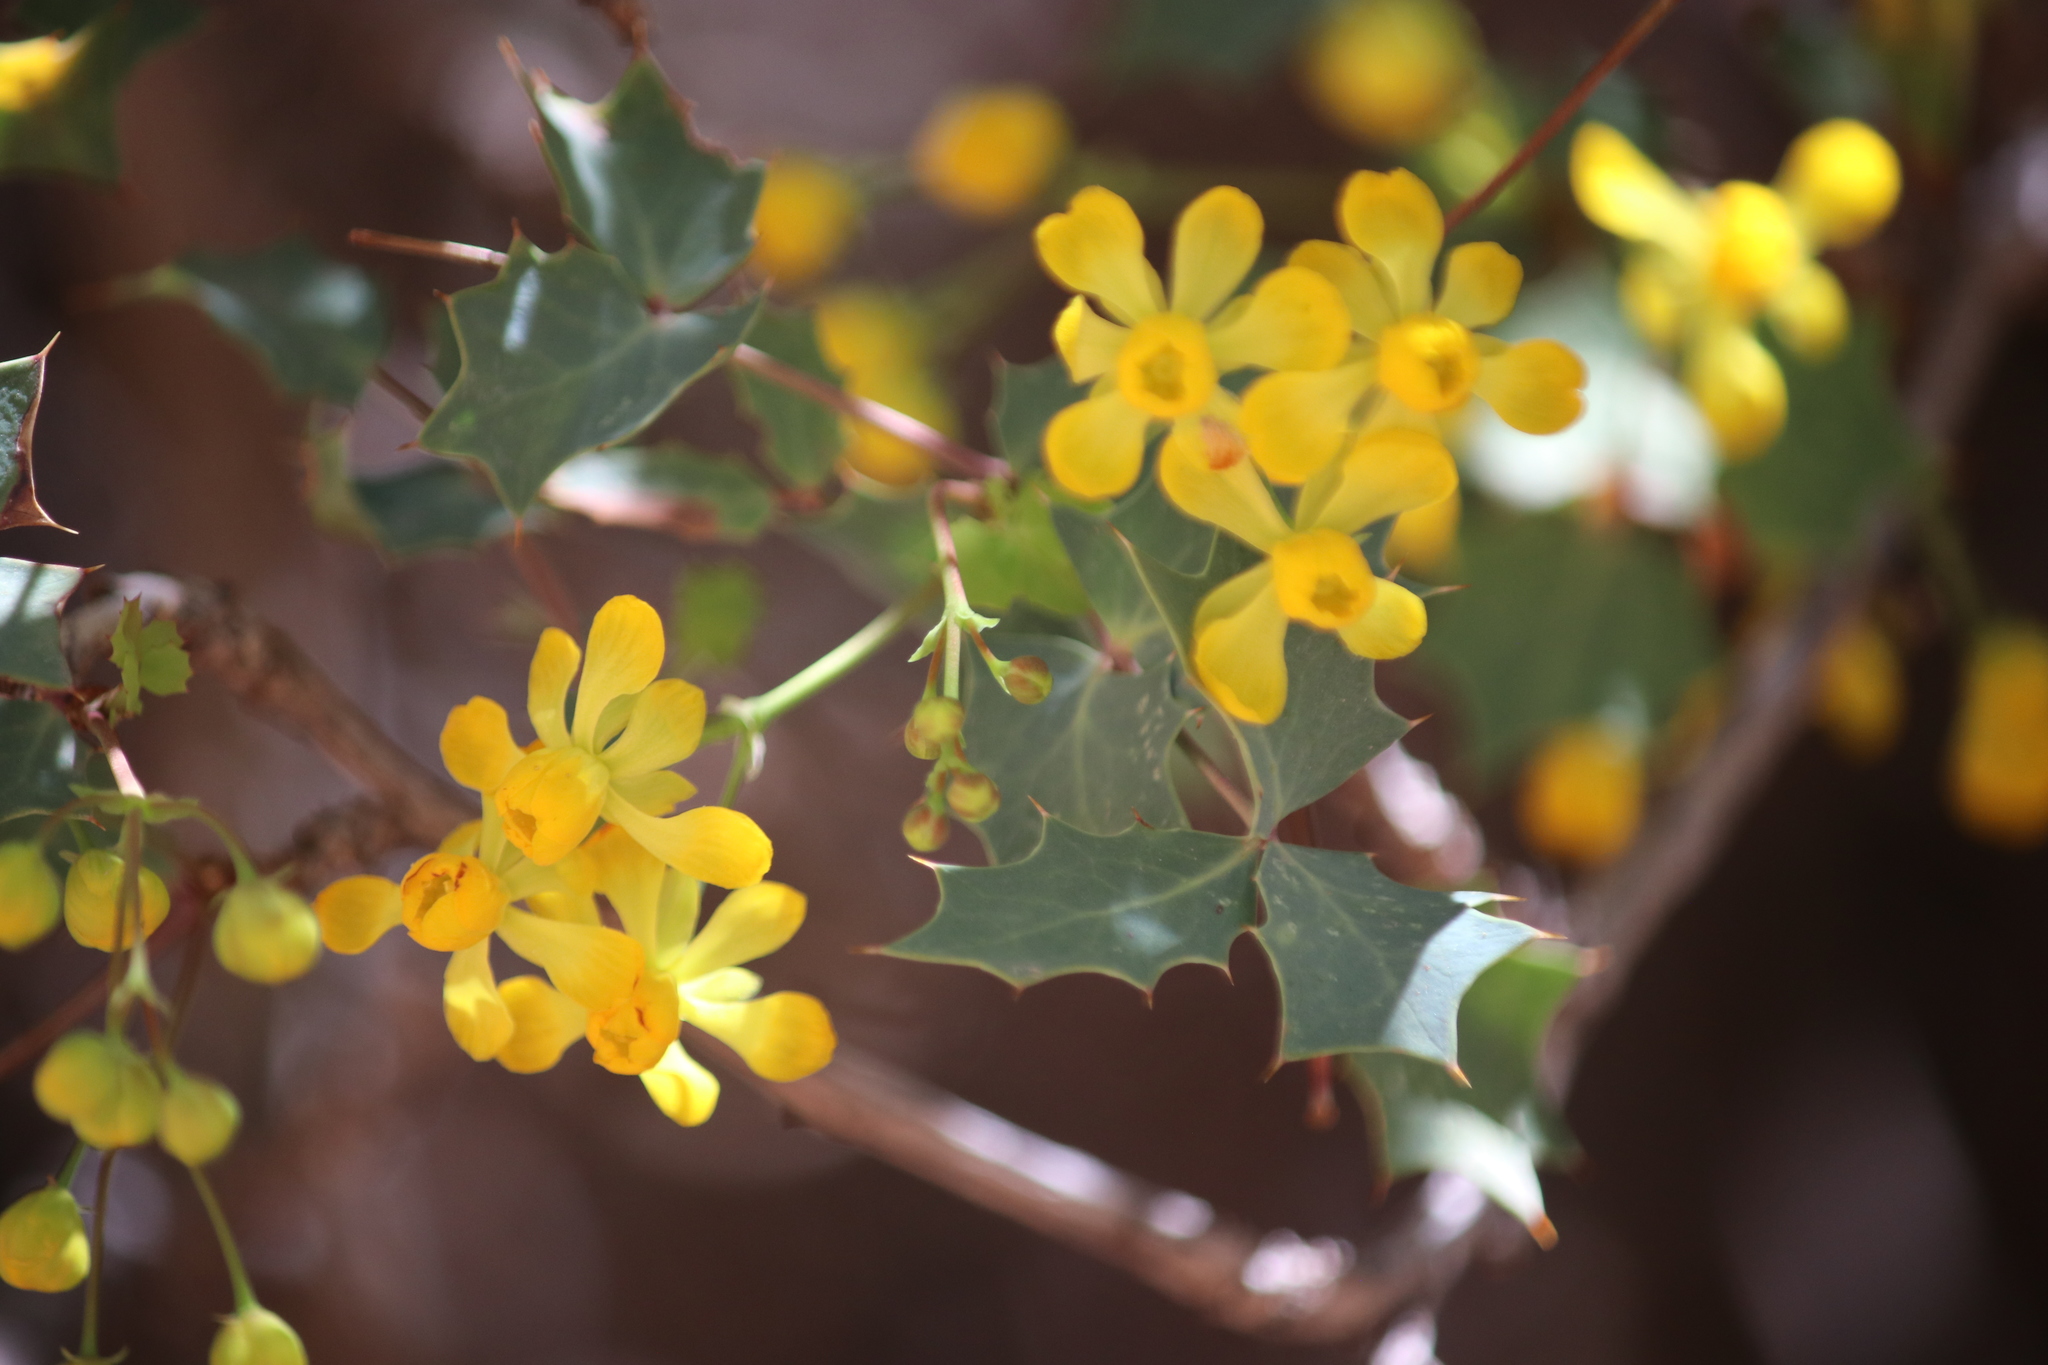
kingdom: Plantae
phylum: Tracheophyta
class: Magnoliopsida
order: Ranunculales
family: Berberidaceae
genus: Alloberberis
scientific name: Alloberberis fremontii
